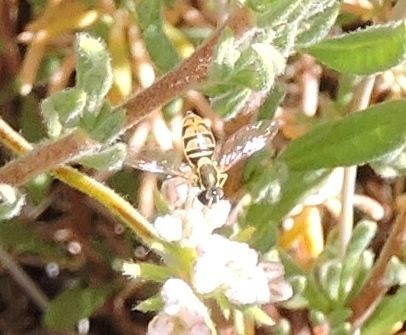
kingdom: Animalia
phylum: Arthropoda
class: Insecta
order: Diptera
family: Syrphidae
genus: Toxomerus
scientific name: Toxomerus marginatus
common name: Syrphid fly
